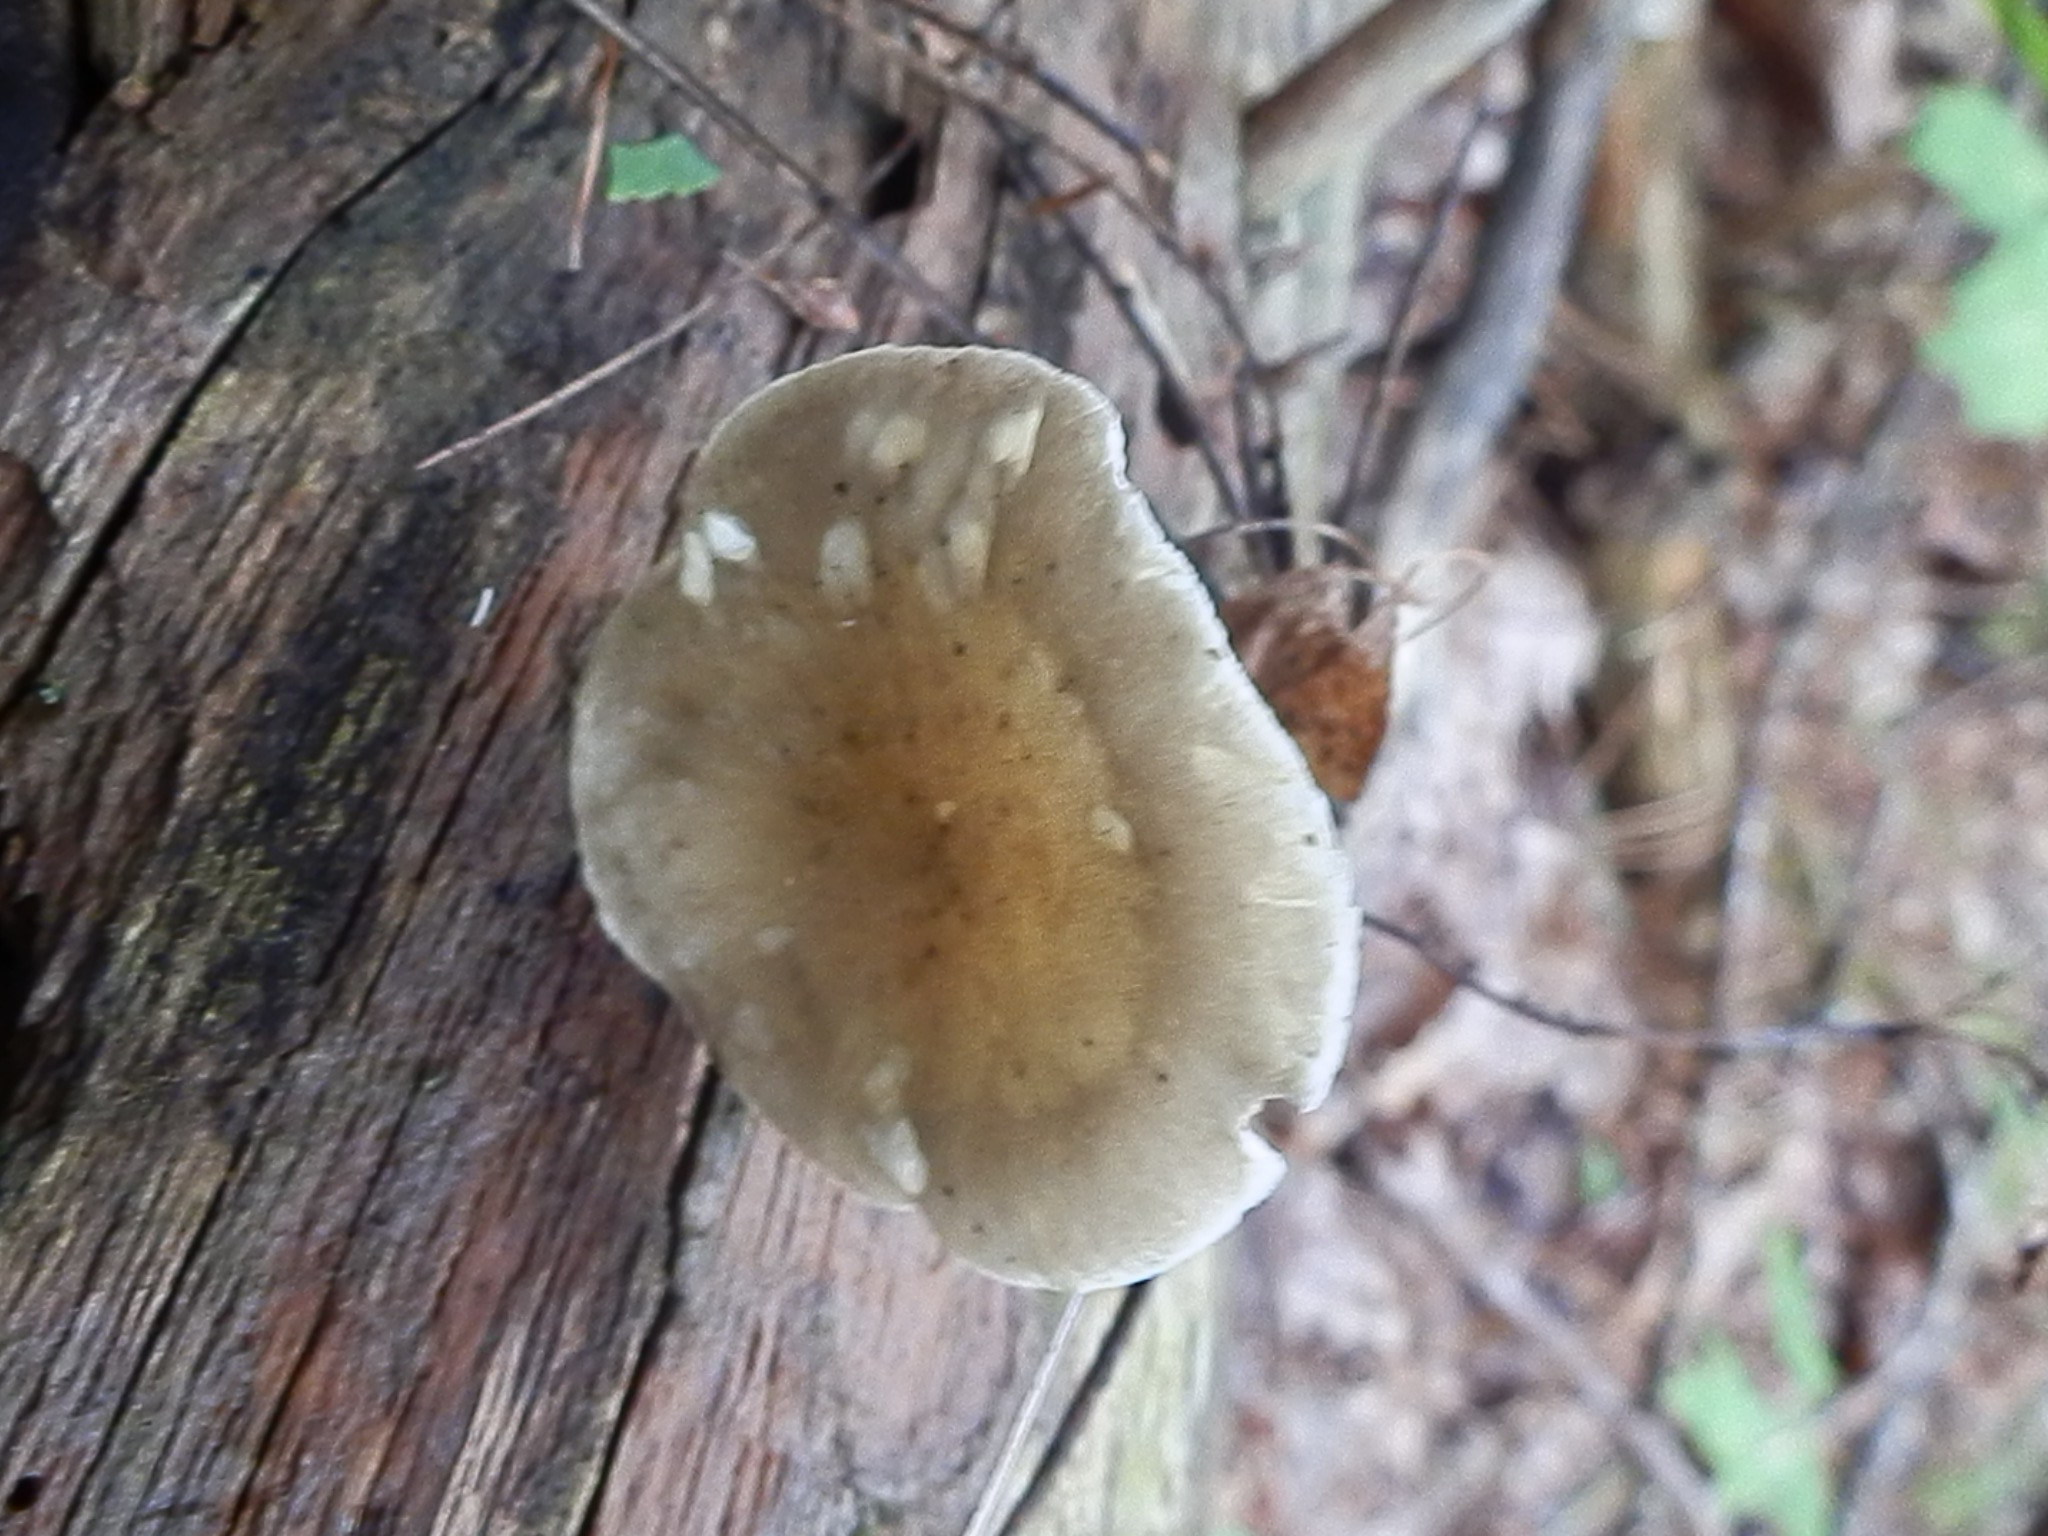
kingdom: Fungi
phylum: Basidiomycota
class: Agaricomycetes
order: Agaricales
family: Hygrophoraceae
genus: Ampulloclitocybe
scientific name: Ampulloclitocybe clavipes
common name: Club foot
